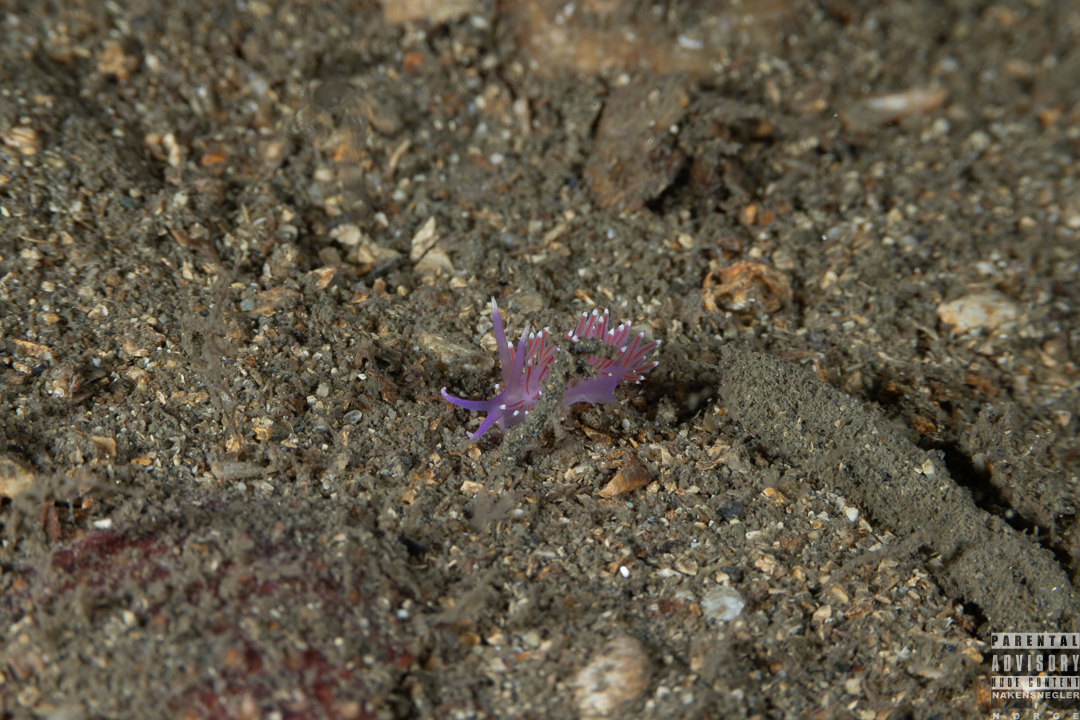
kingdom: Animalia
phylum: Mollusca
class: Gastropoda
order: Nudibranchia
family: Flabellinidae
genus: Edmundsella
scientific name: Edmundsella pedata
